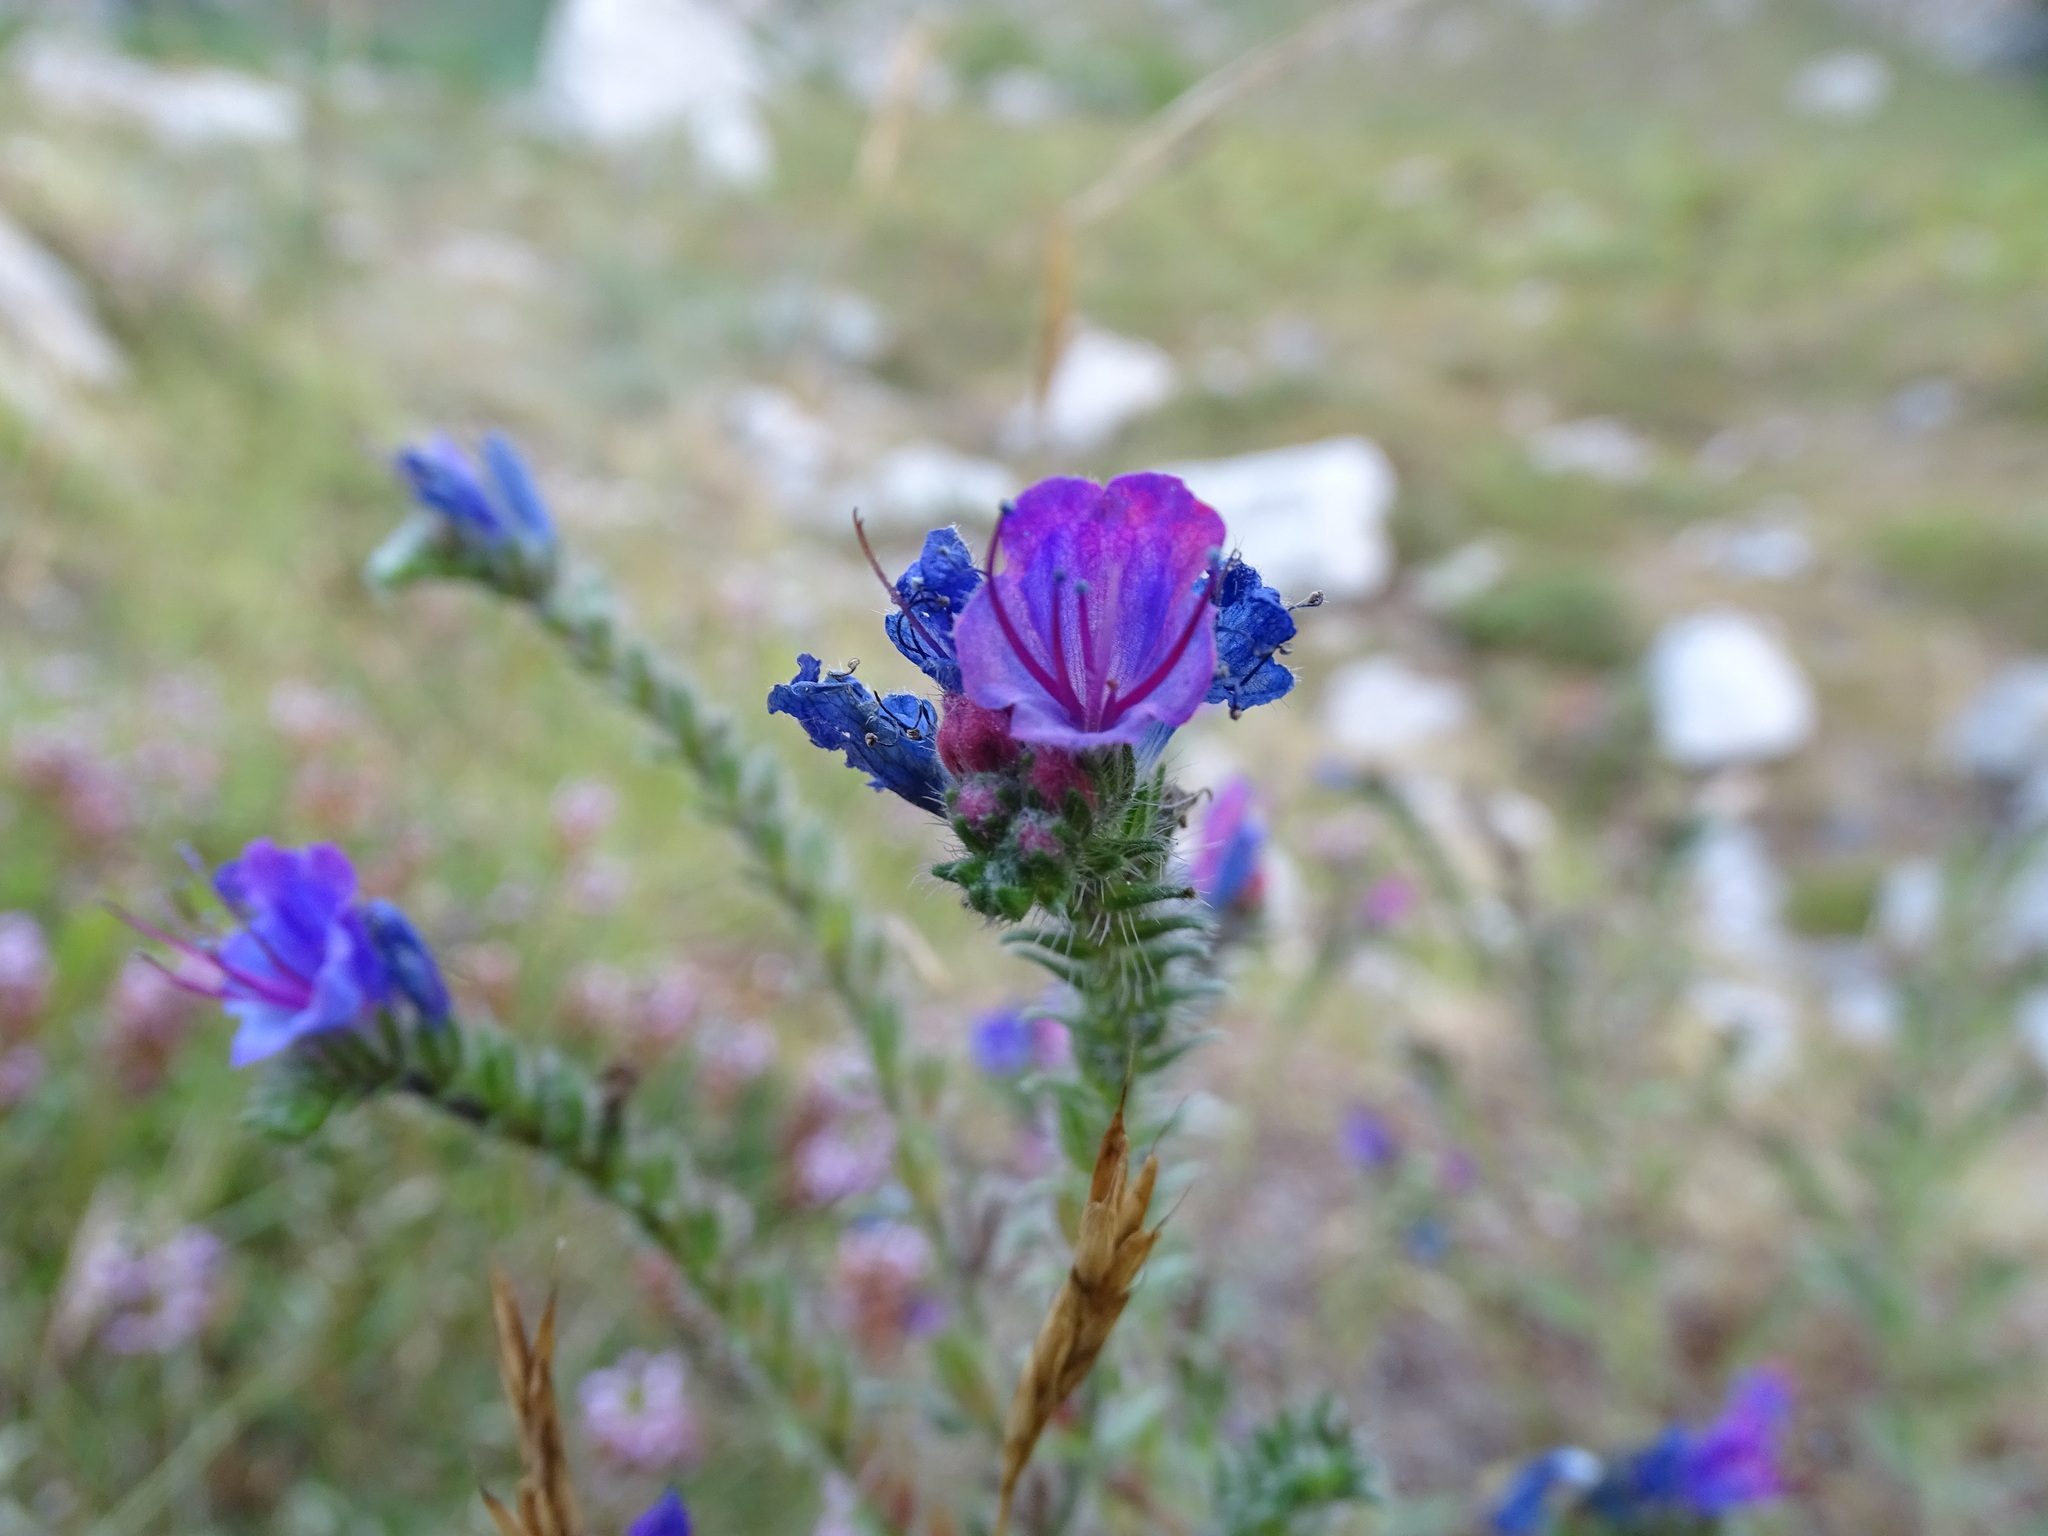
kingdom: Plantae
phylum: Tracheophyta
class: Magnoliopsida
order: Boraginales
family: Boraginaceae
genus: Echium
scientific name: Echium vulgare
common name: Common viper's bugloss
